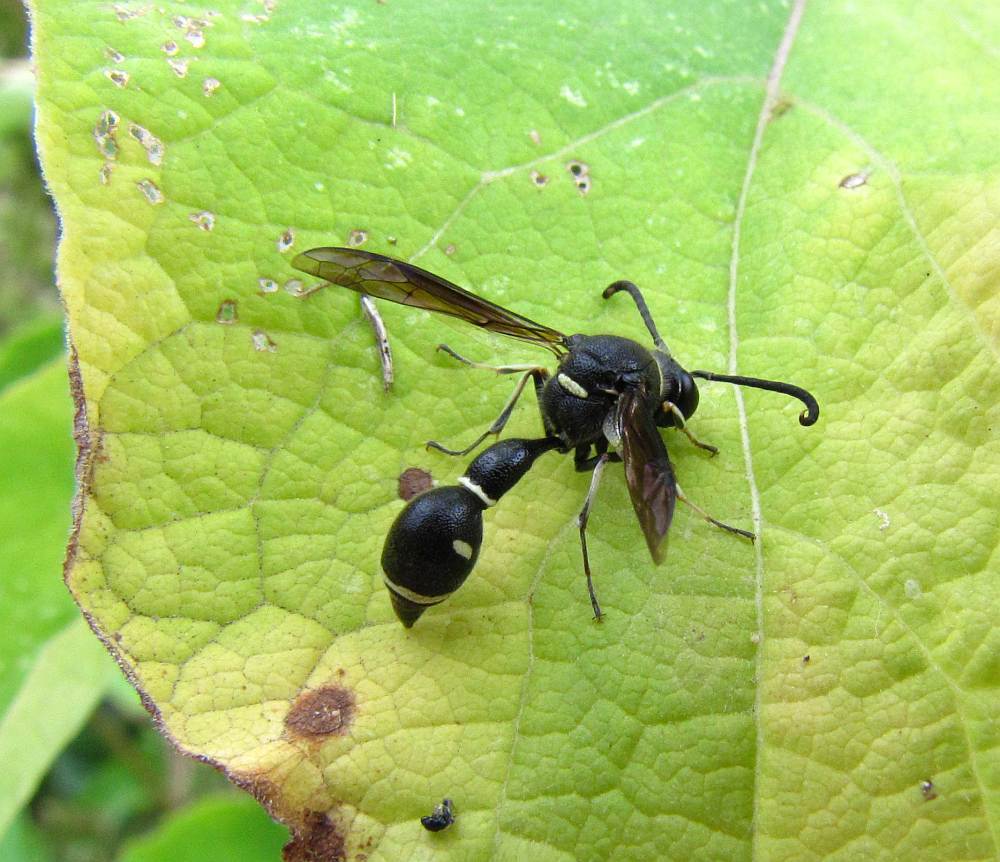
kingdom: Animalia
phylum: Arthropoda
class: Insecta
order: Hymenoptera
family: Vespidae
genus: Eumenes
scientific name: Eumenes fraternus
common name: Fraternal potter wasp
